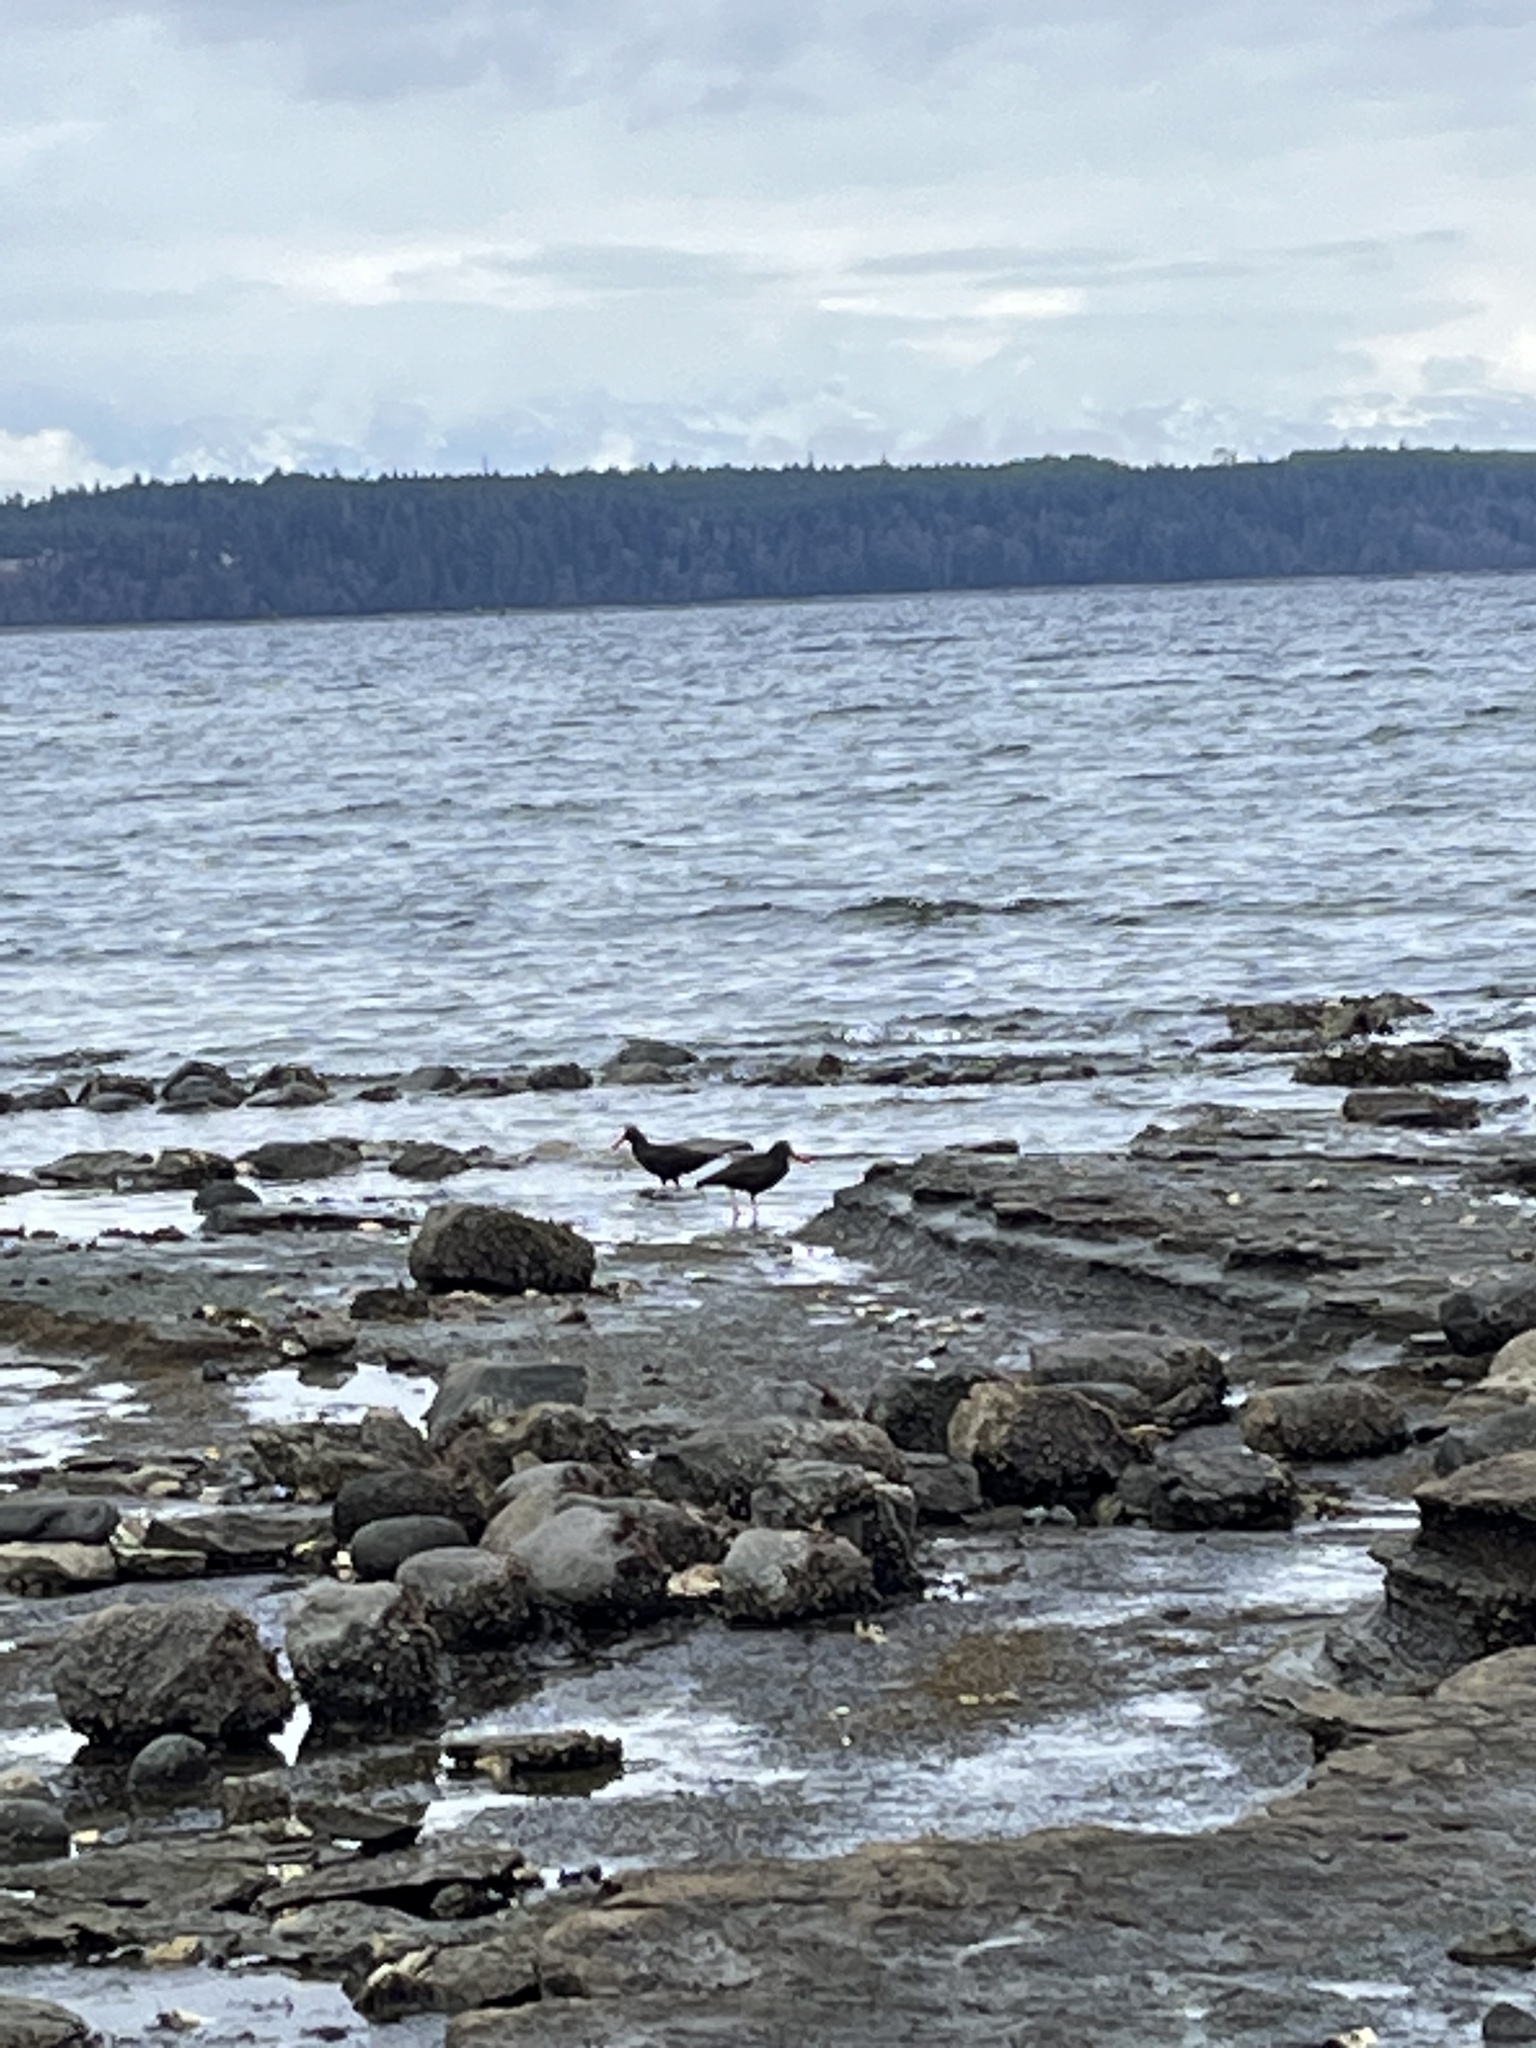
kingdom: Animalia
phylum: Chordata
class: Aves
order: Charadriiformes
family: Haematopodidae
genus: Haematopus
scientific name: Haematopus bachmani
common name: Black oystercatcher
